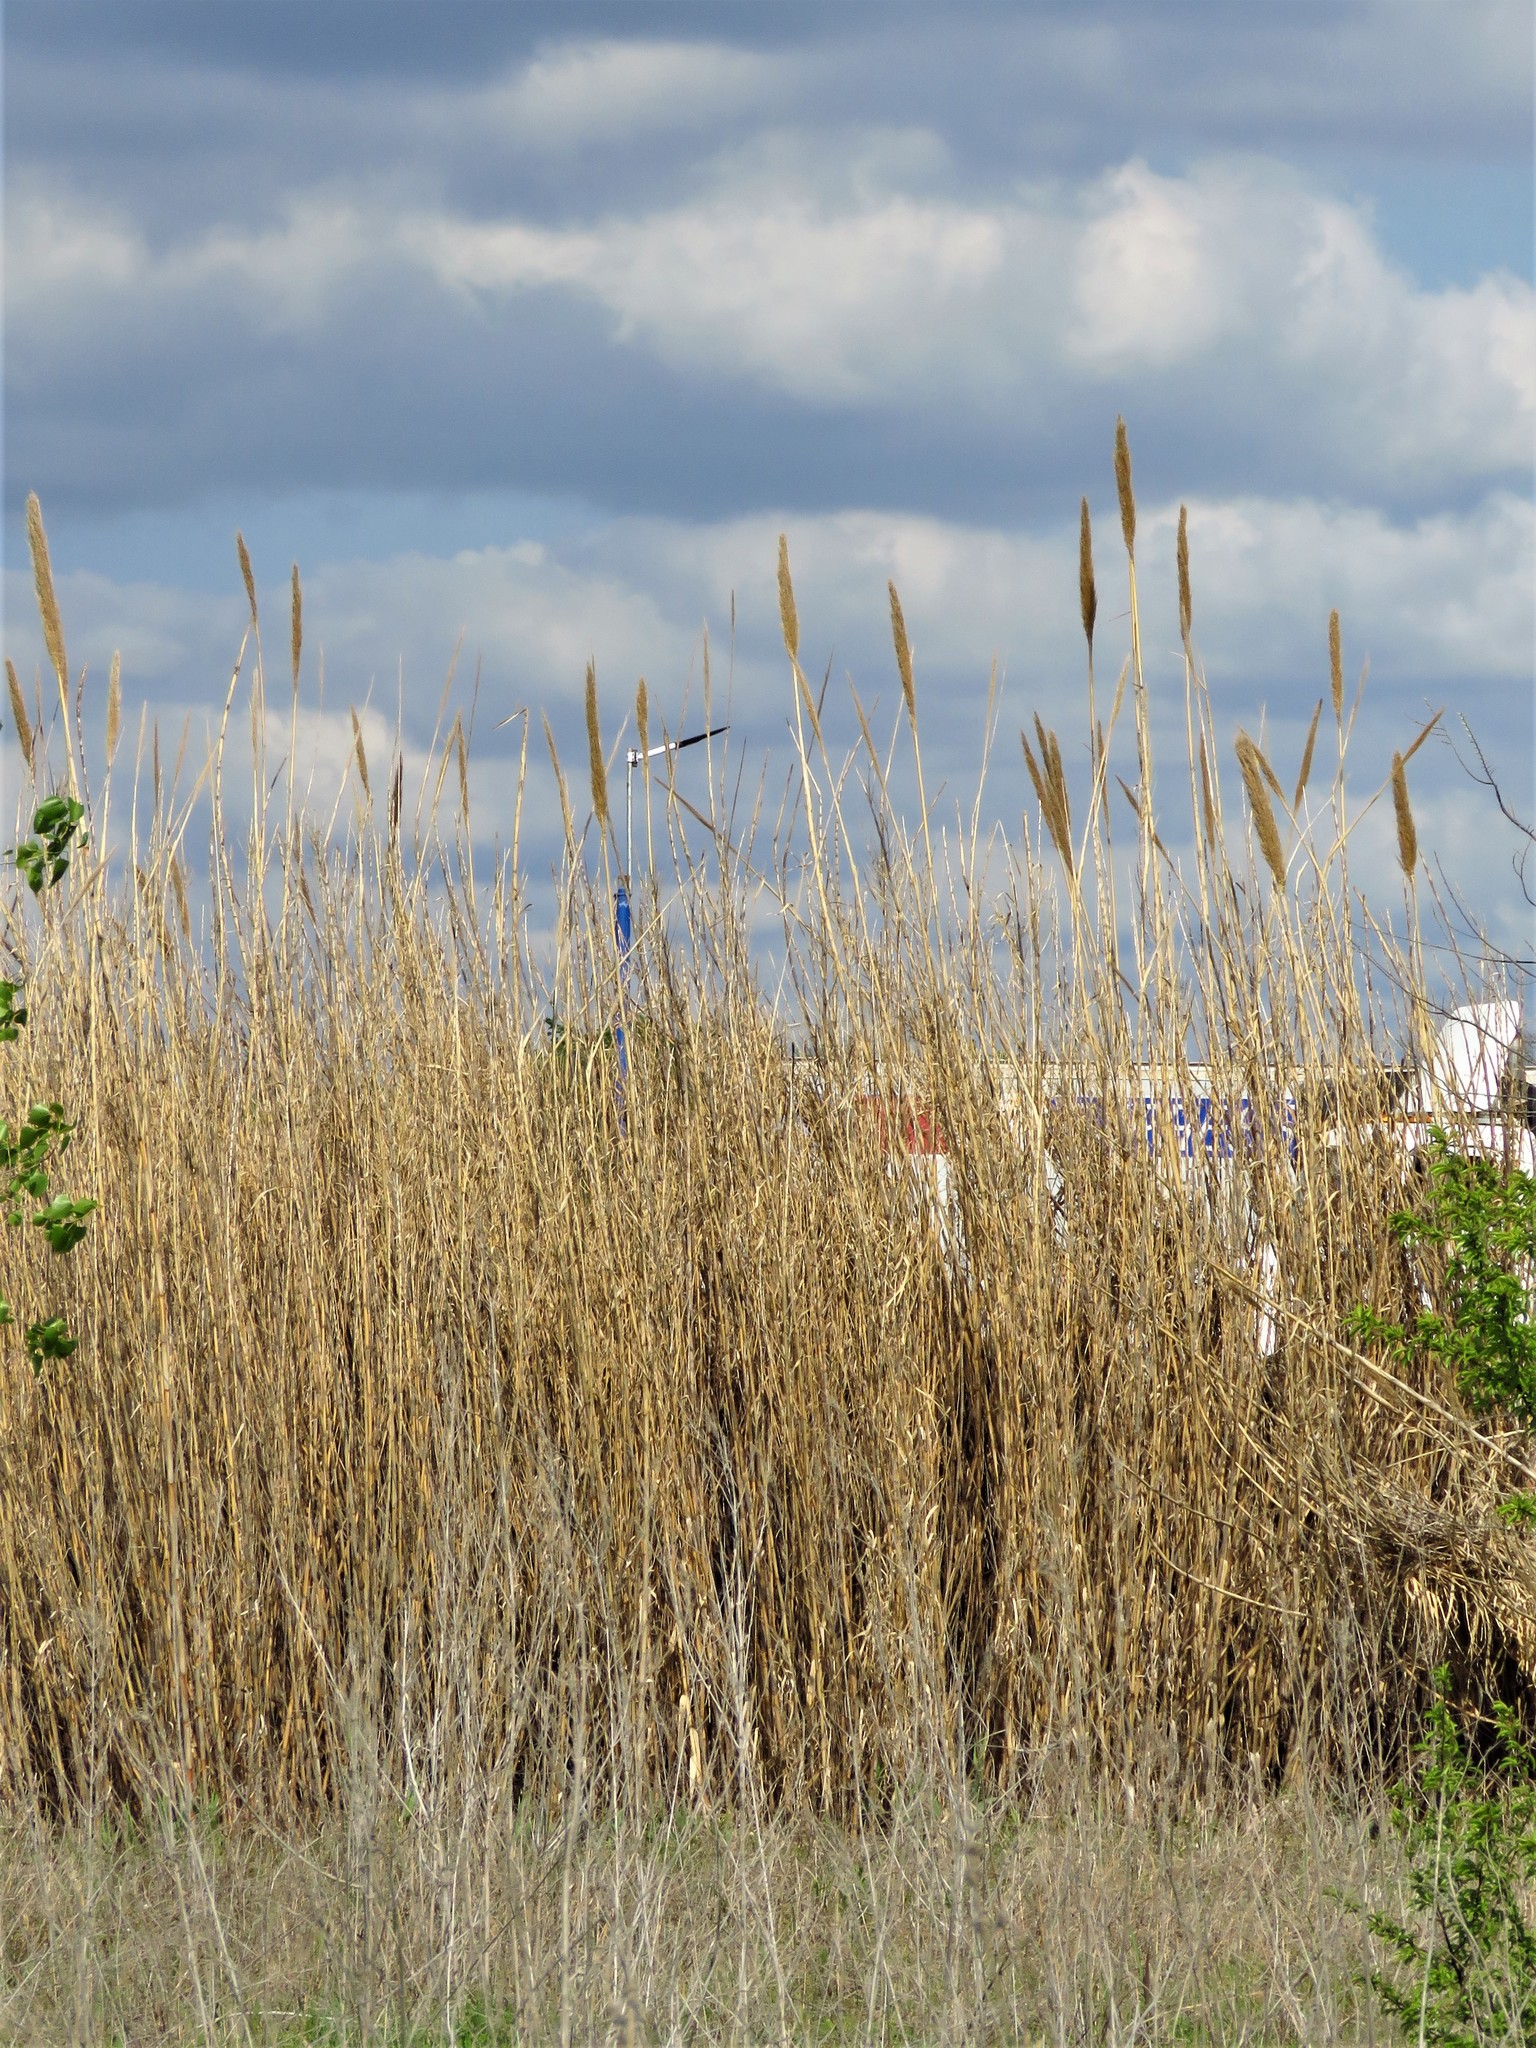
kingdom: Plantae
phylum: Tracheophyta
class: Liliopsida
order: Poales
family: Poaceae
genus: Arundo
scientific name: Arundo donax
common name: Giant reed
